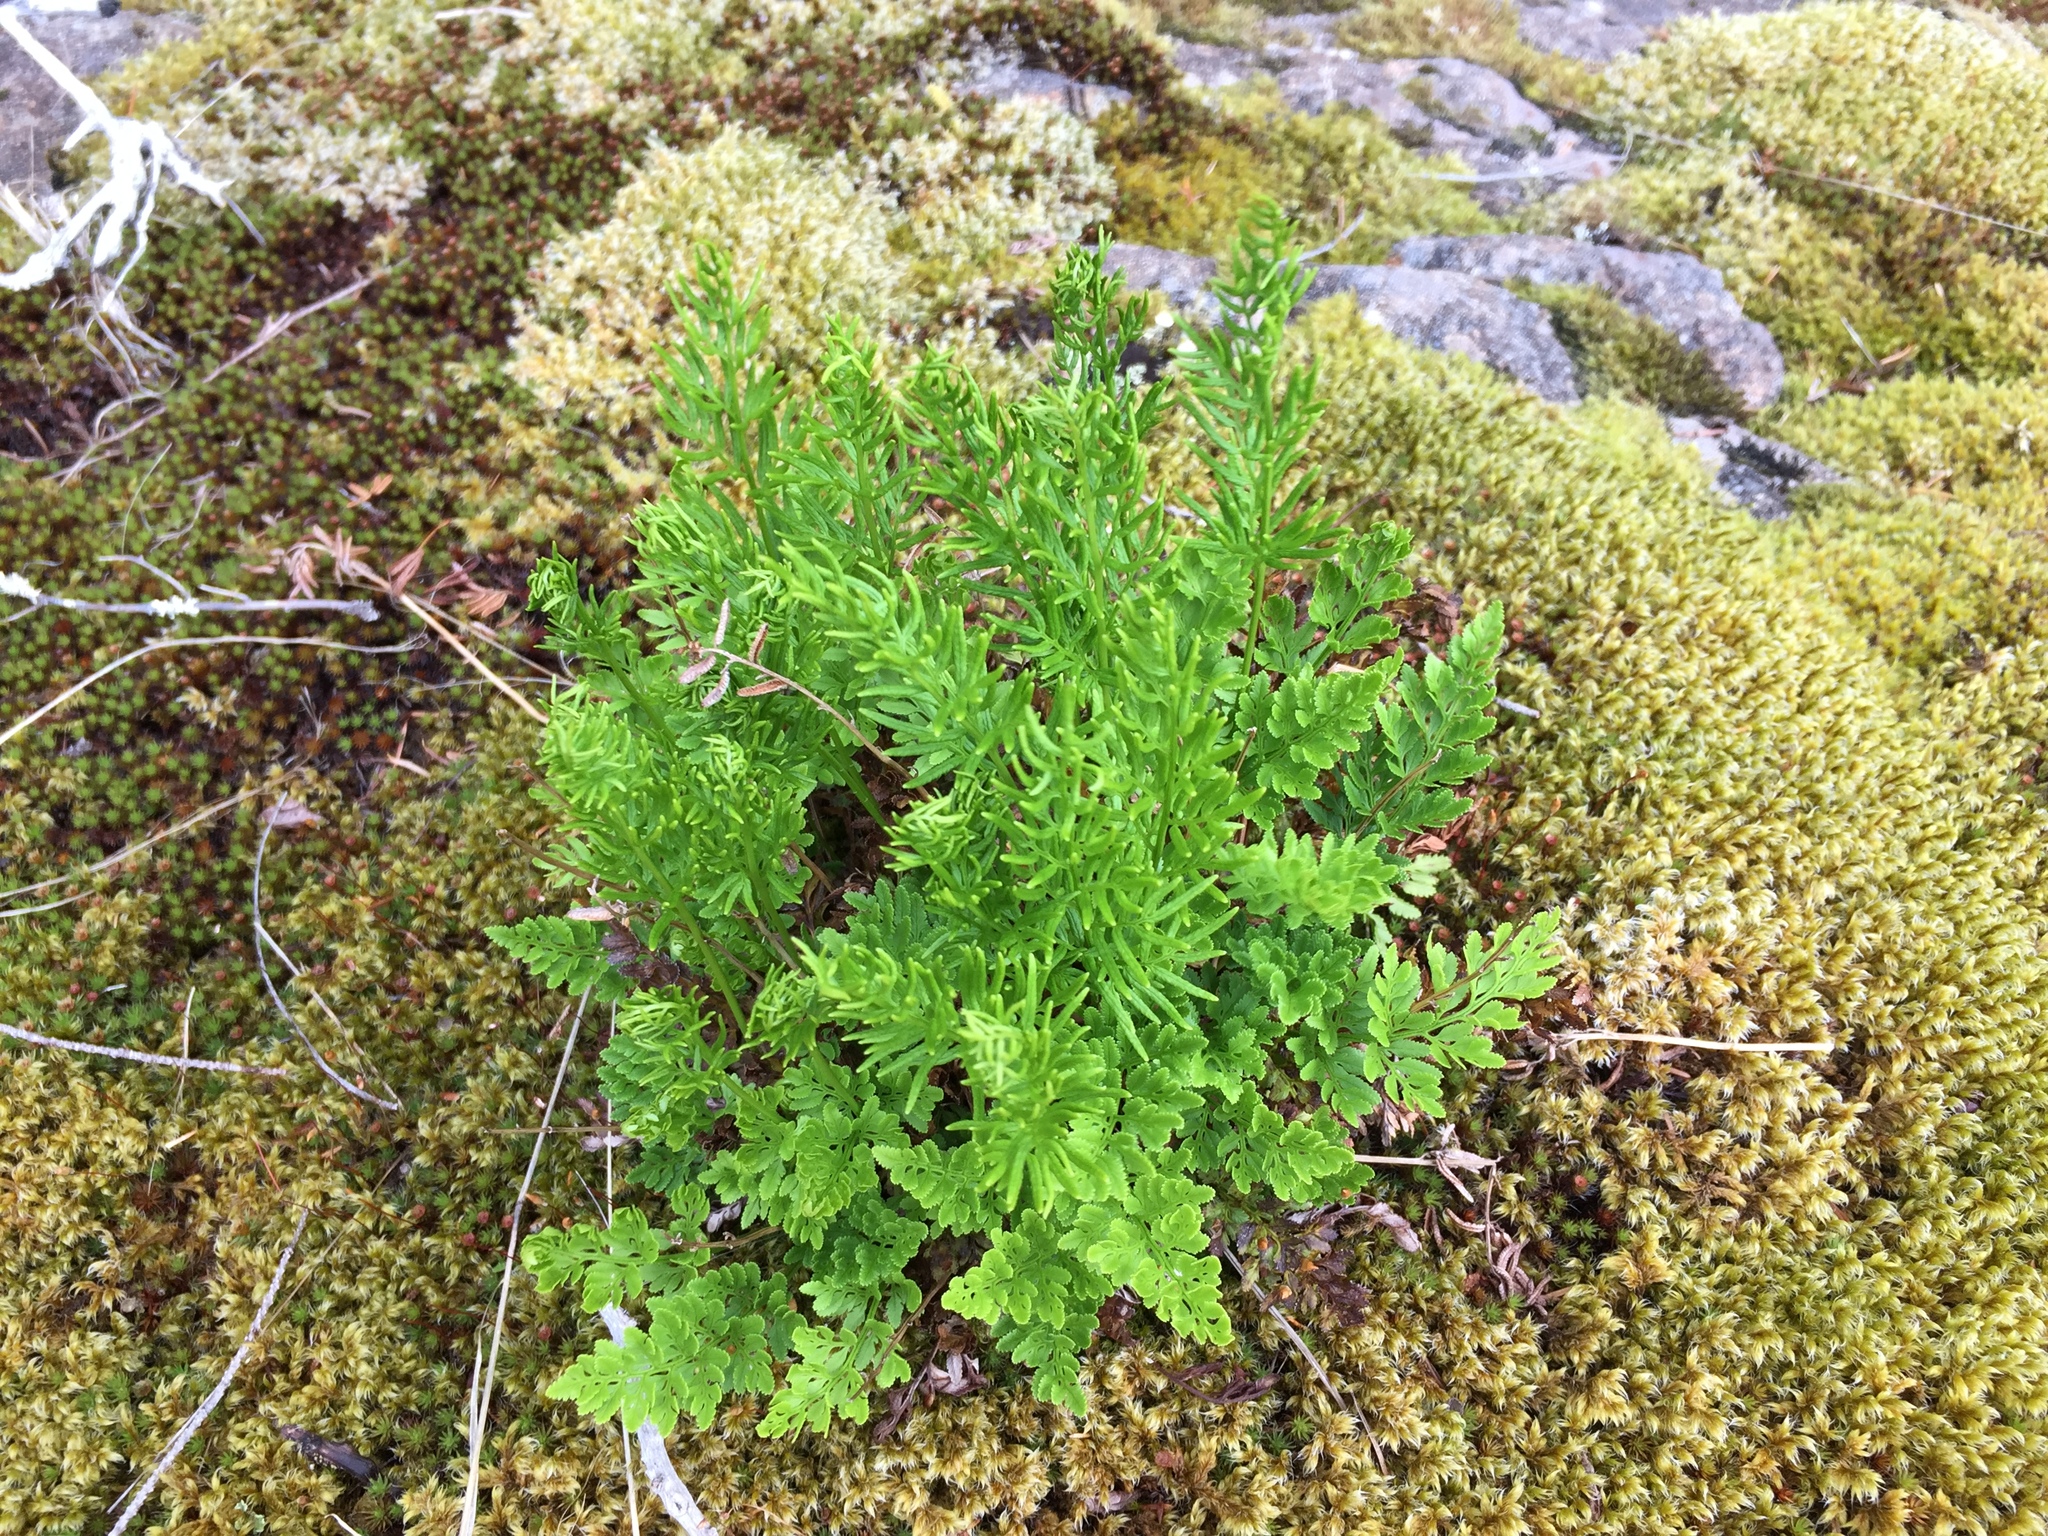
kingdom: Plantae
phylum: Tracheophyta
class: Polypodiopsida
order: Polypodiales
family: Pteridaceae
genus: Cryptogramma
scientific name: Cryptogramma acrostichoides
